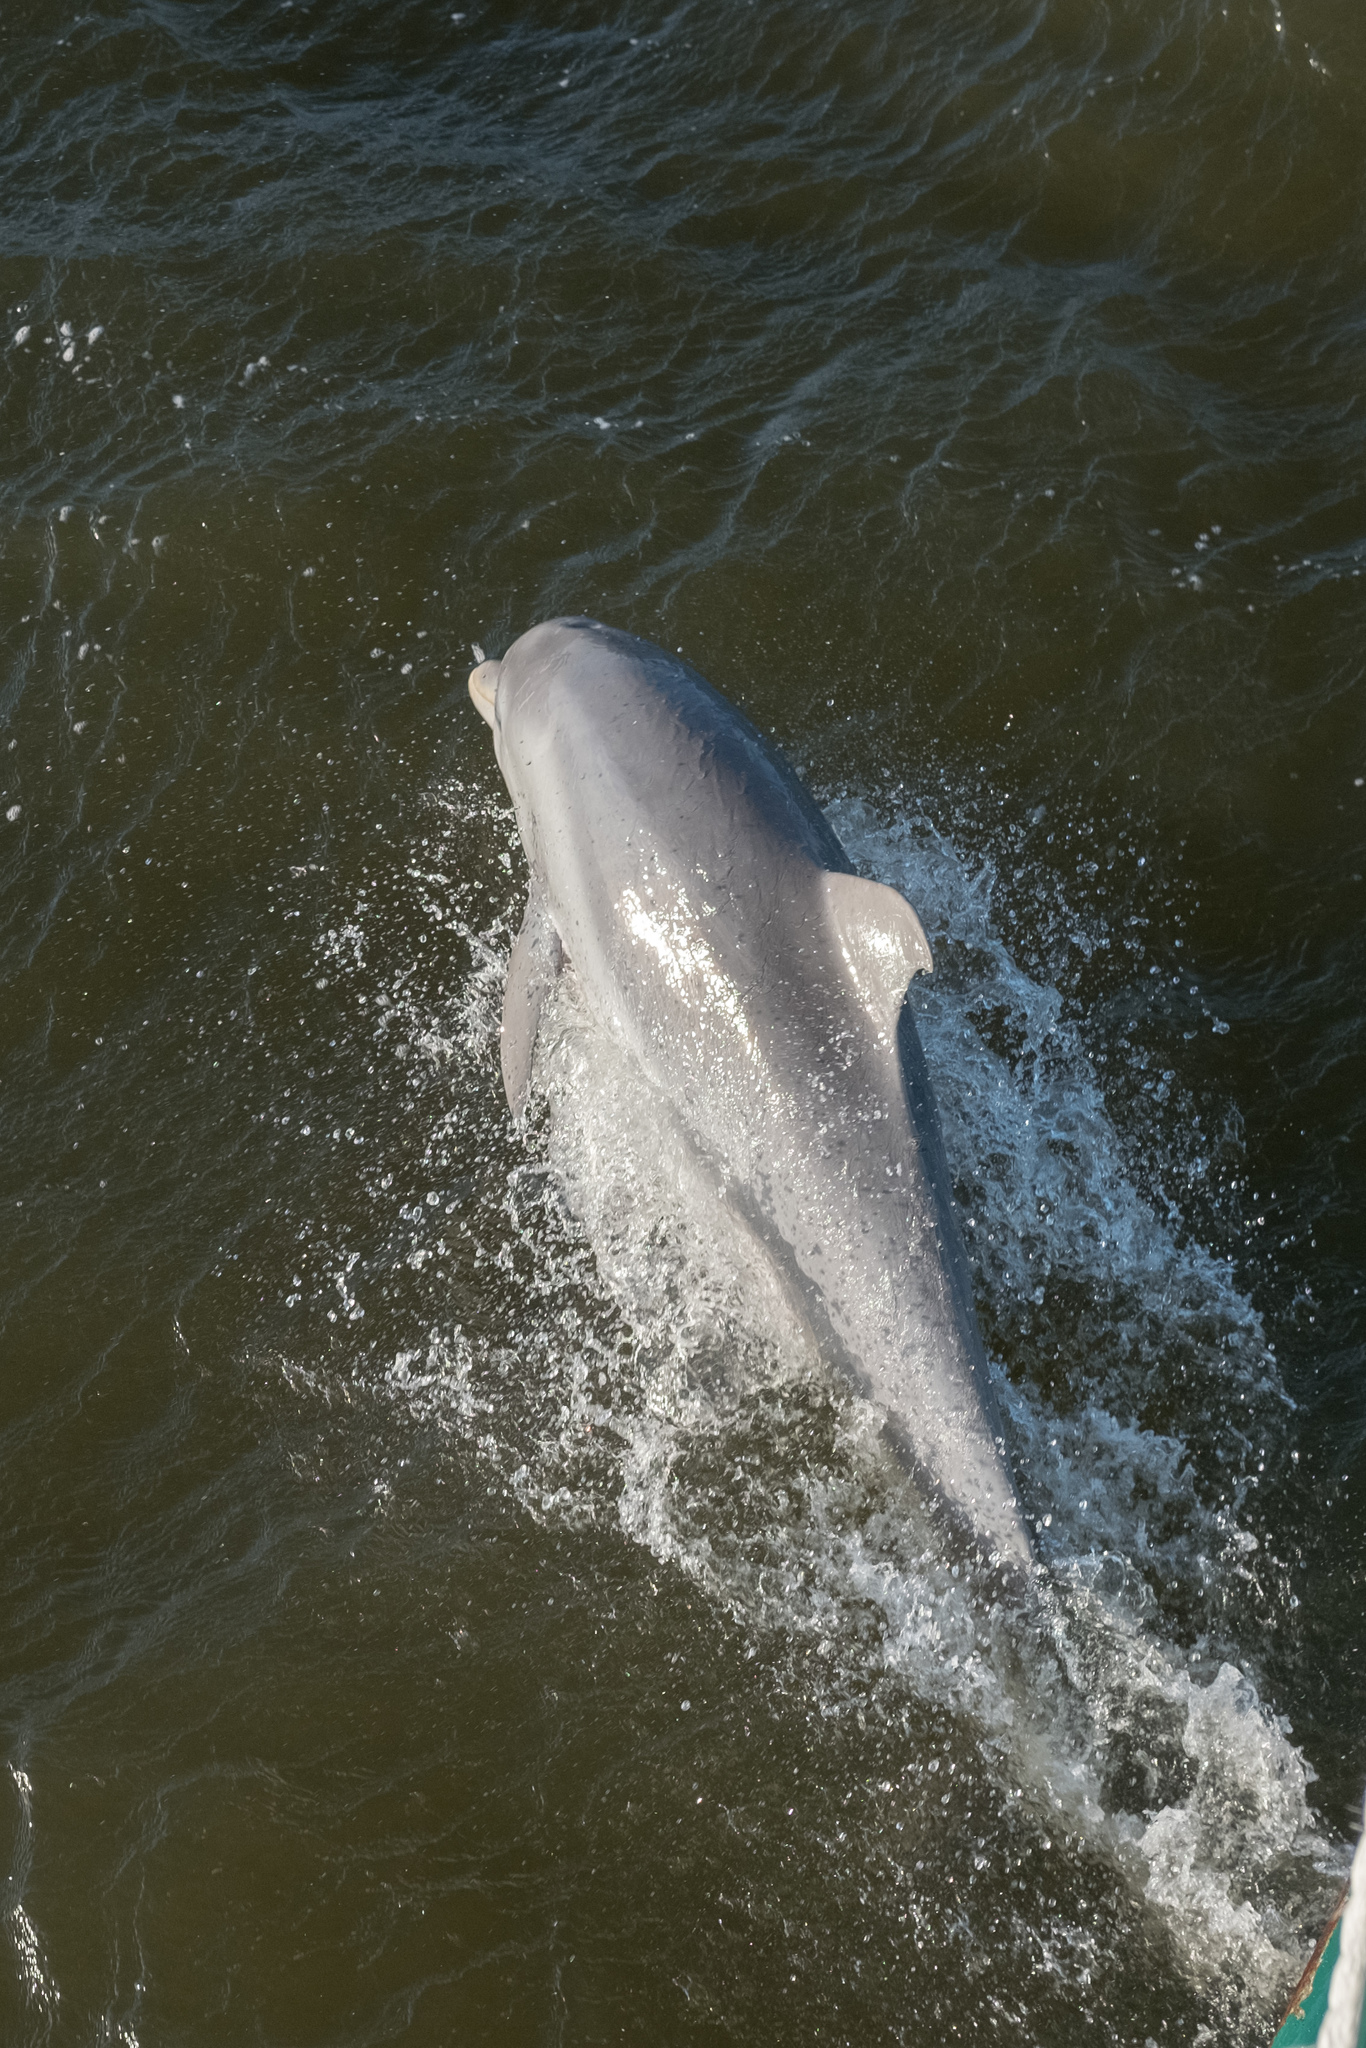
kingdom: Animalia
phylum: Chordata
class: Mammalia
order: Cetacea
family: Delphinidae
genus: Tursiops
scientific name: Tursiops truncatus
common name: Bottlenose dolphin
